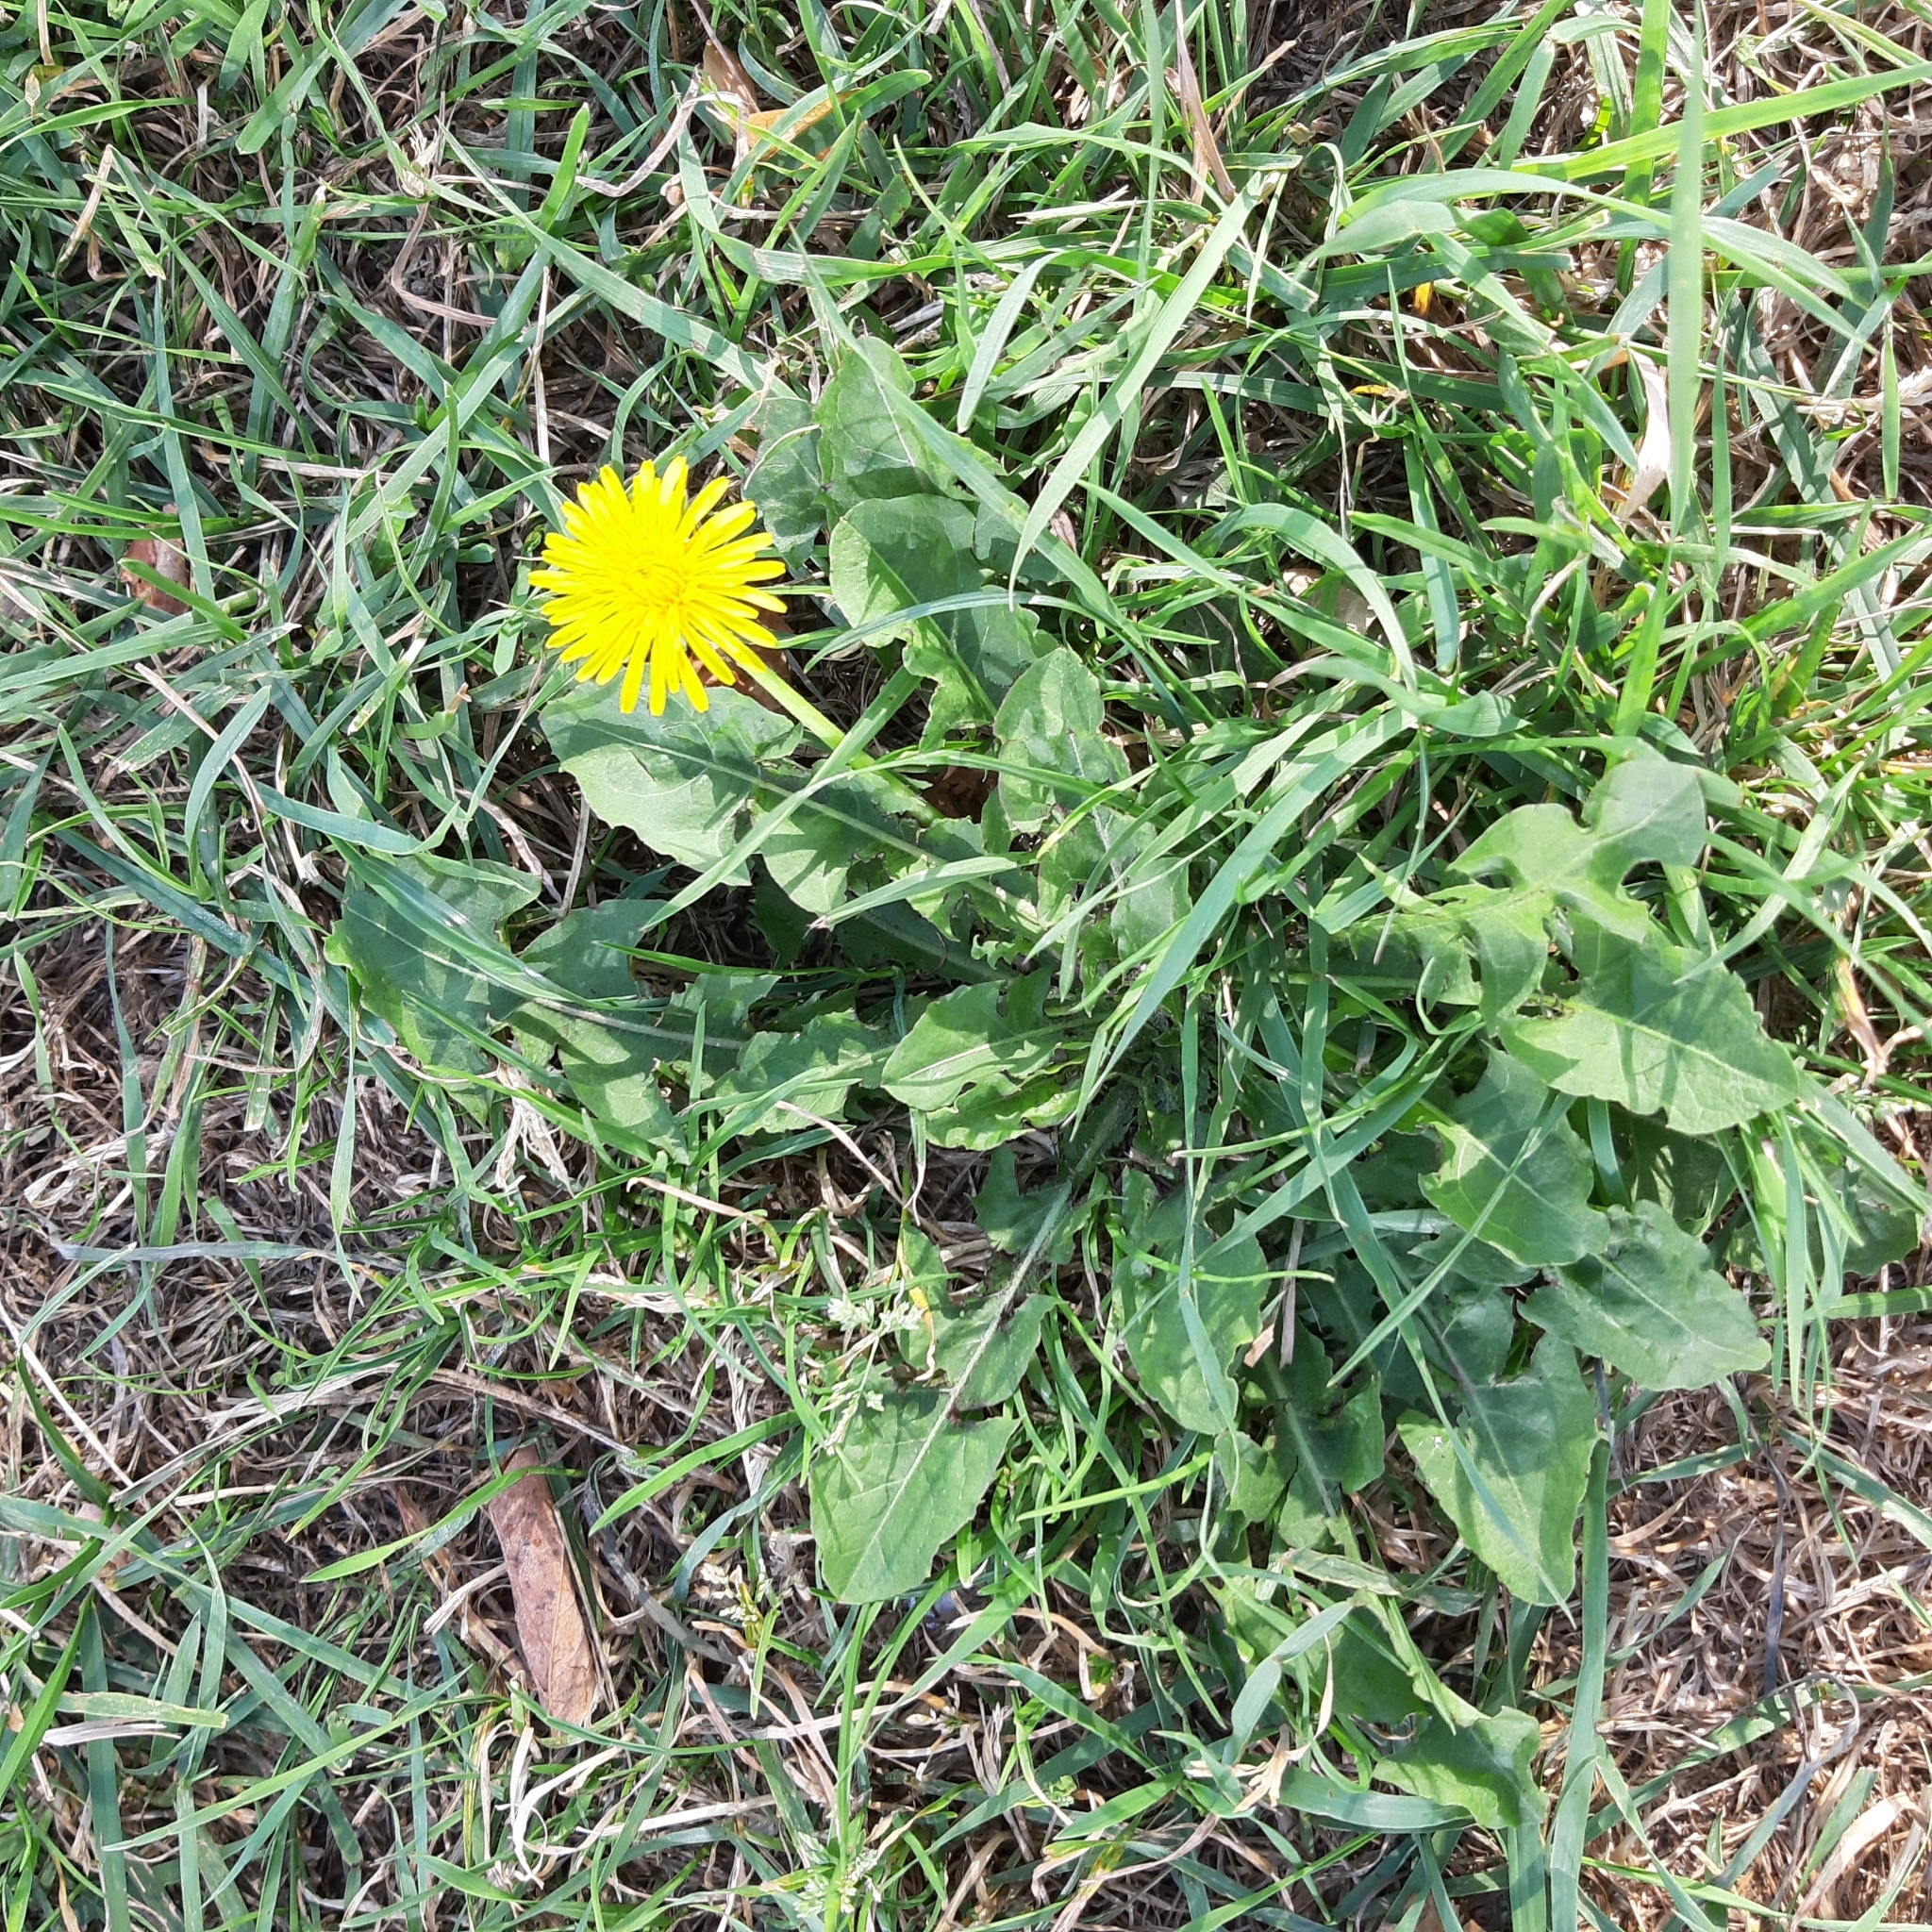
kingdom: Plantae
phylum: Tracheophyta
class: Magnoliopsida
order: Asterales
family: Asteraceae
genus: Taraxacum
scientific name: Taraxacum officinale
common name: Common dandelion
